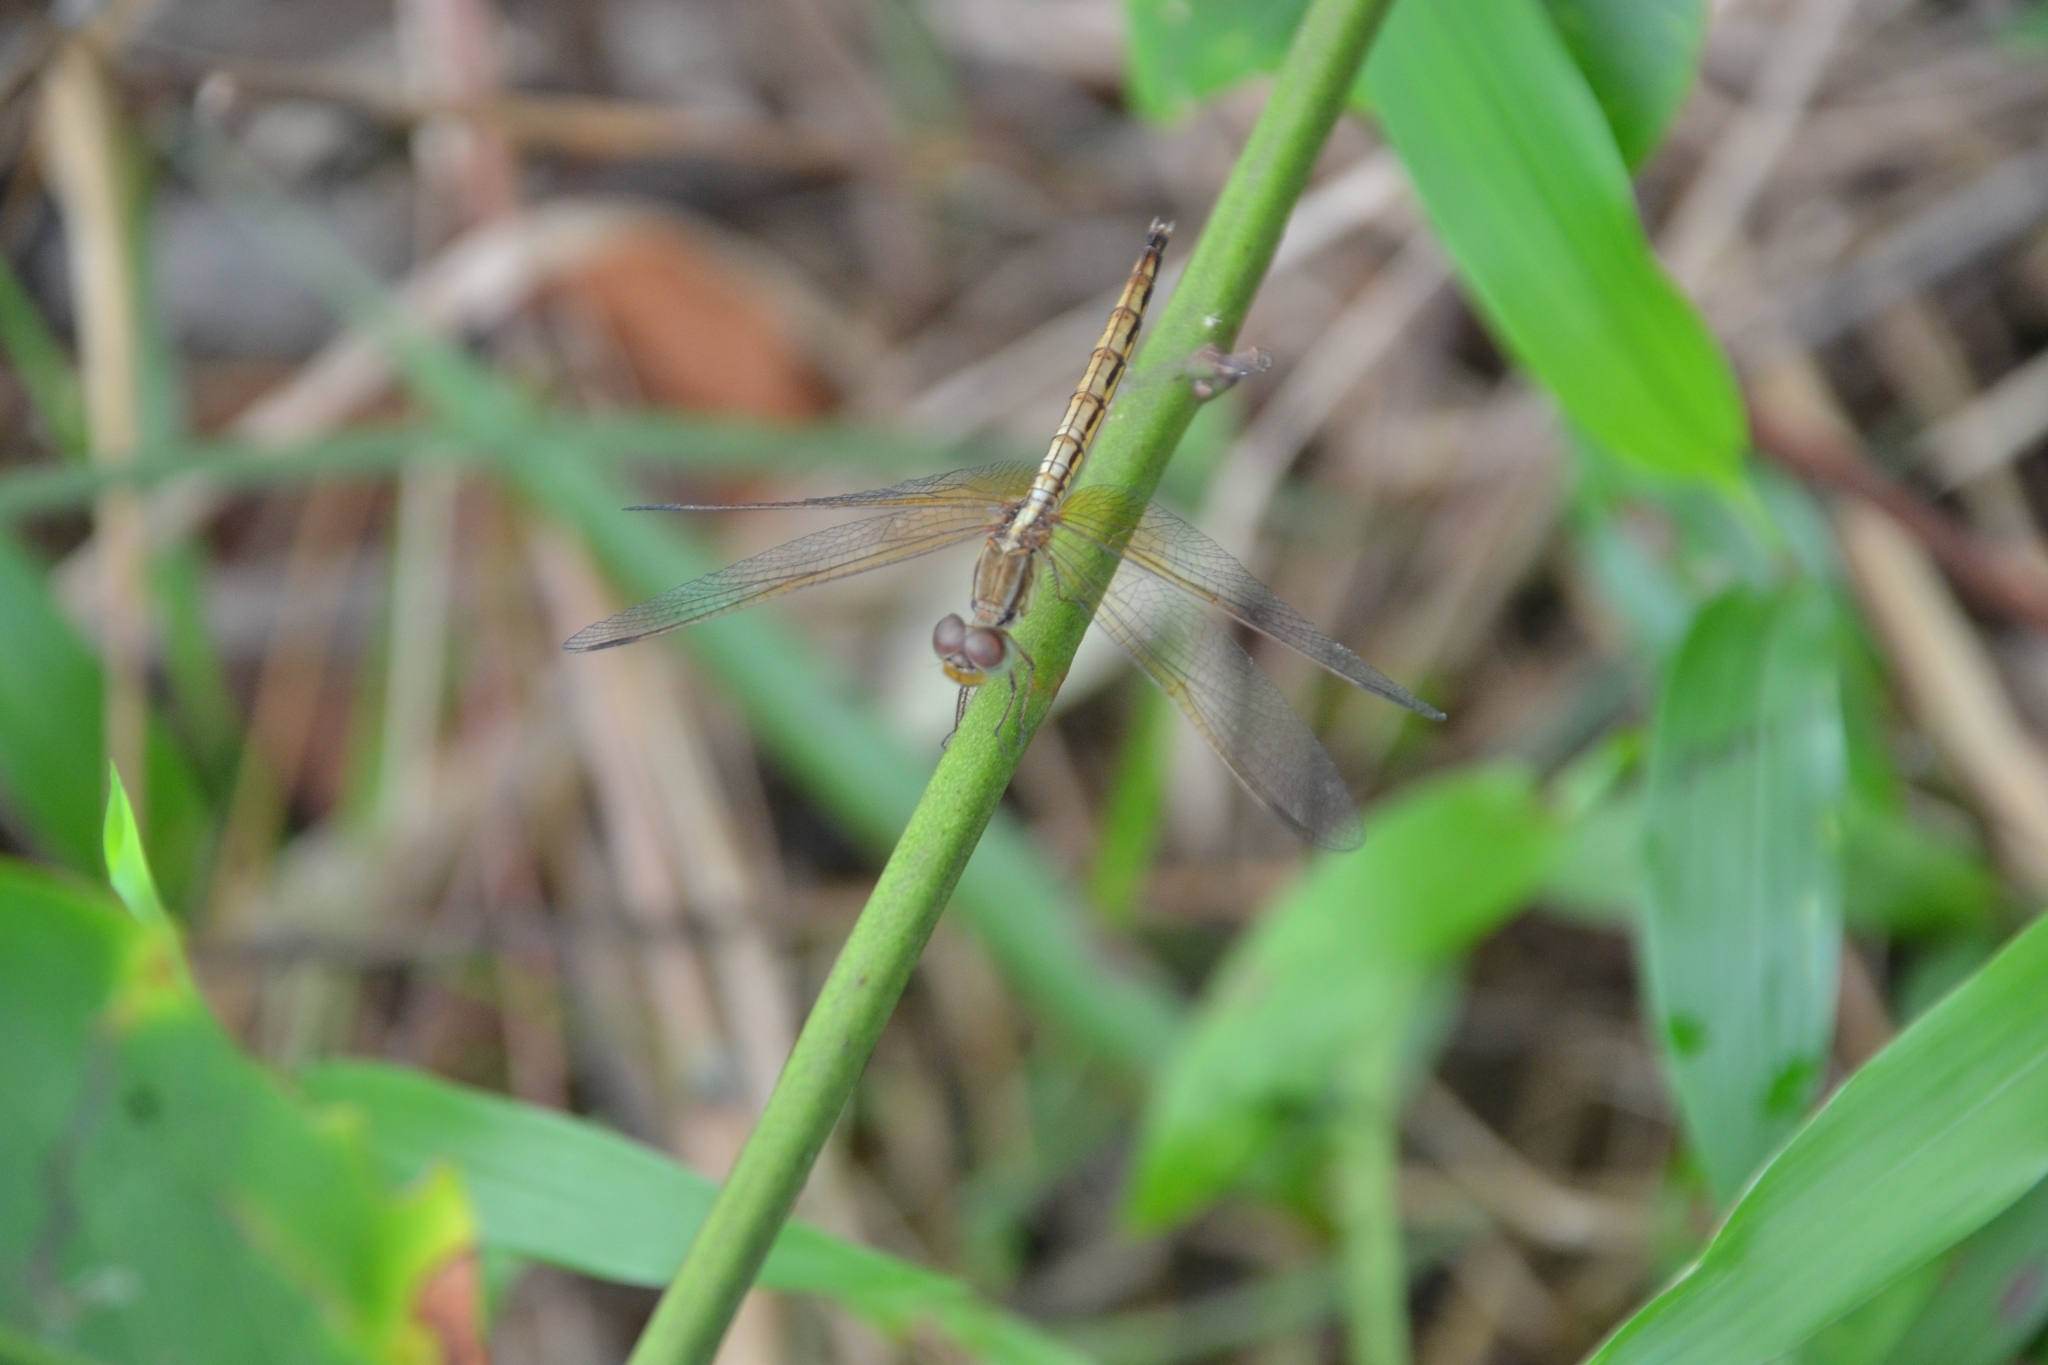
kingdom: Animalia
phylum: Arthropoda
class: Insecta
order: Odonata
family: Libellulidae
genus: Neurothemis
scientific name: Neurothemis intermedia
